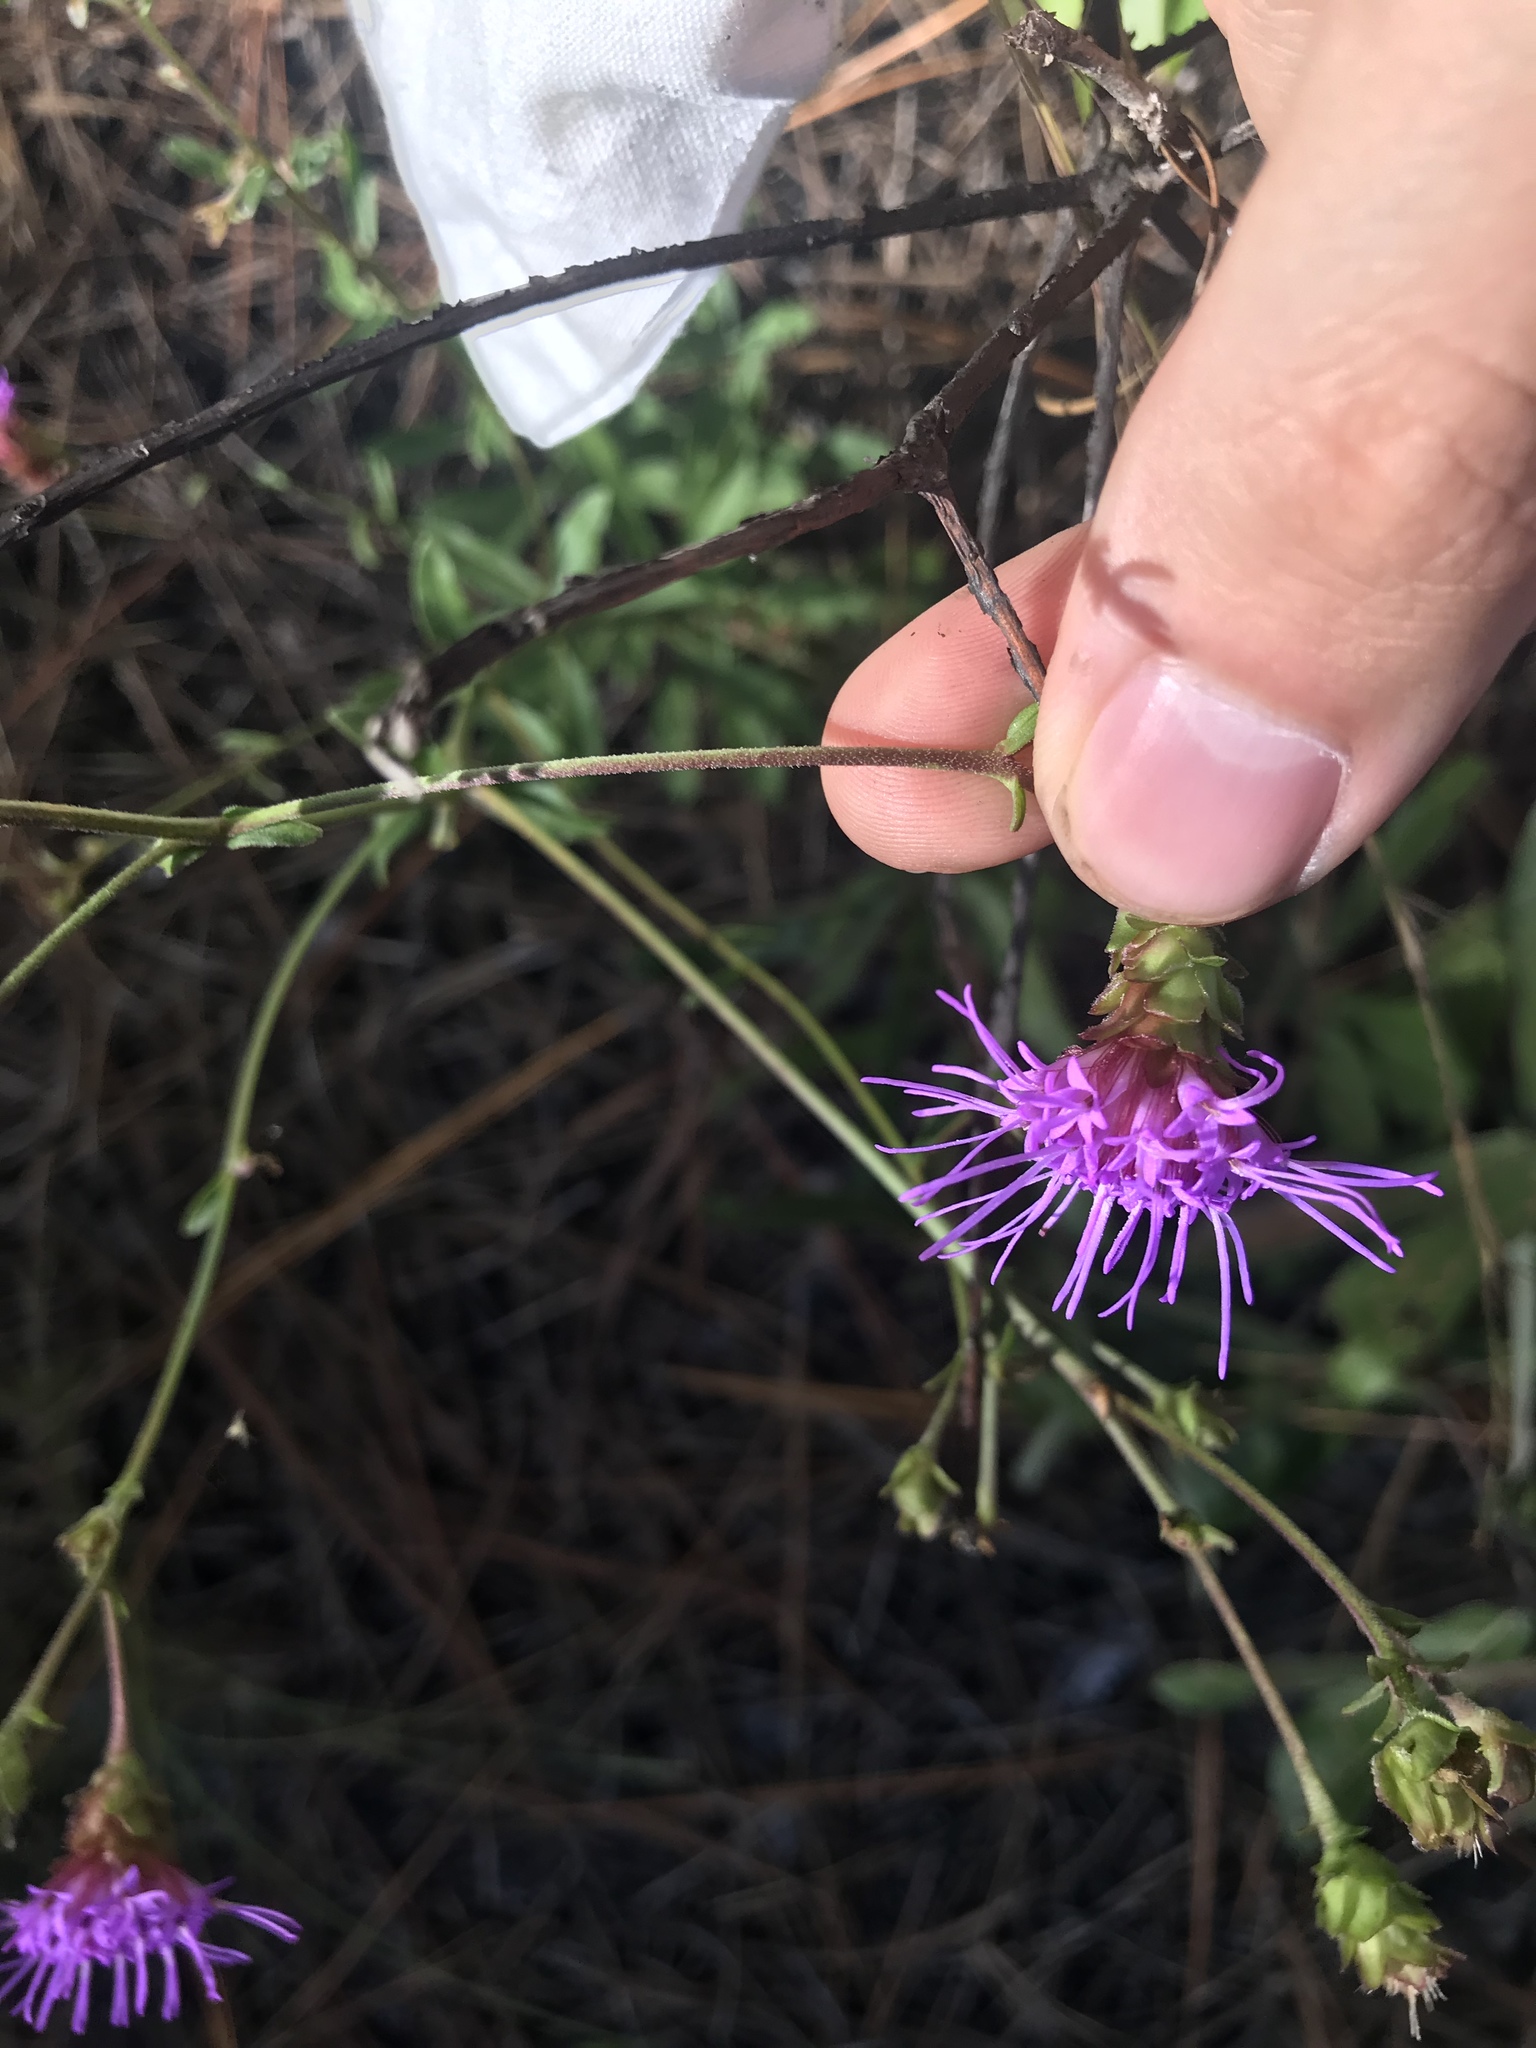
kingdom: Plantae
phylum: Tracheophyta
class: Magnoliopsida
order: Asterales
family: Asteraceae
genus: Carphephorus
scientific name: Carphephorus bellidifolius
